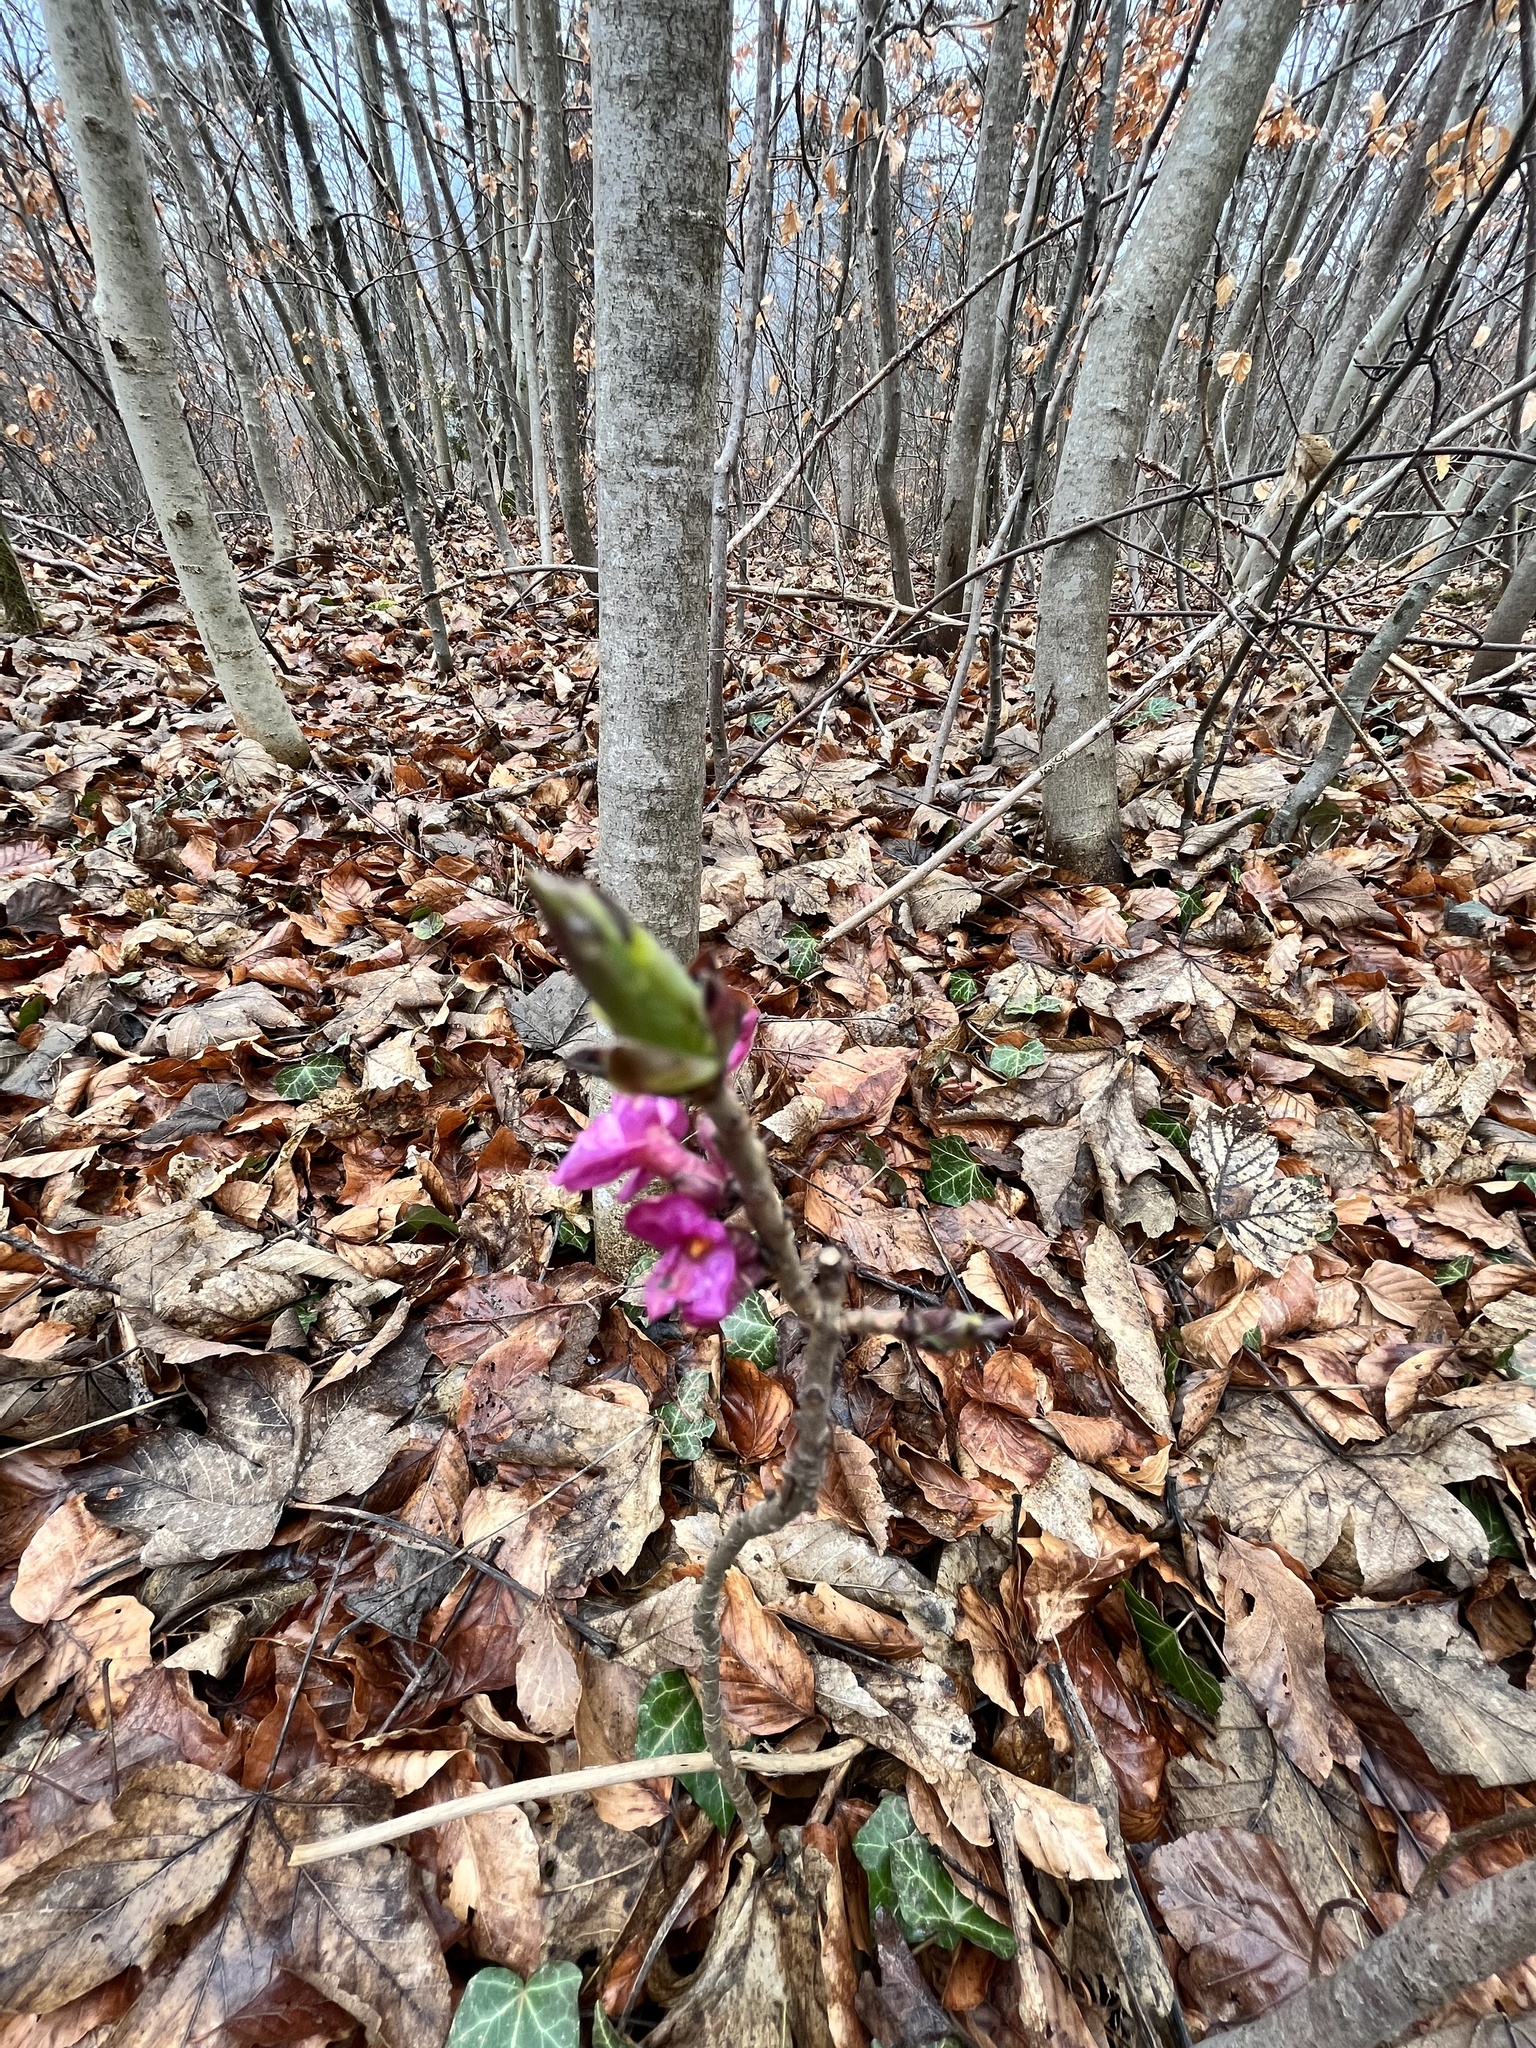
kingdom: Plantae
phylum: Tracheophyta
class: Magnoliopsida
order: Malvales
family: Thymelaeaceae
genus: Daphne
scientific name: Daphne mezereum
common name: Mezereon
